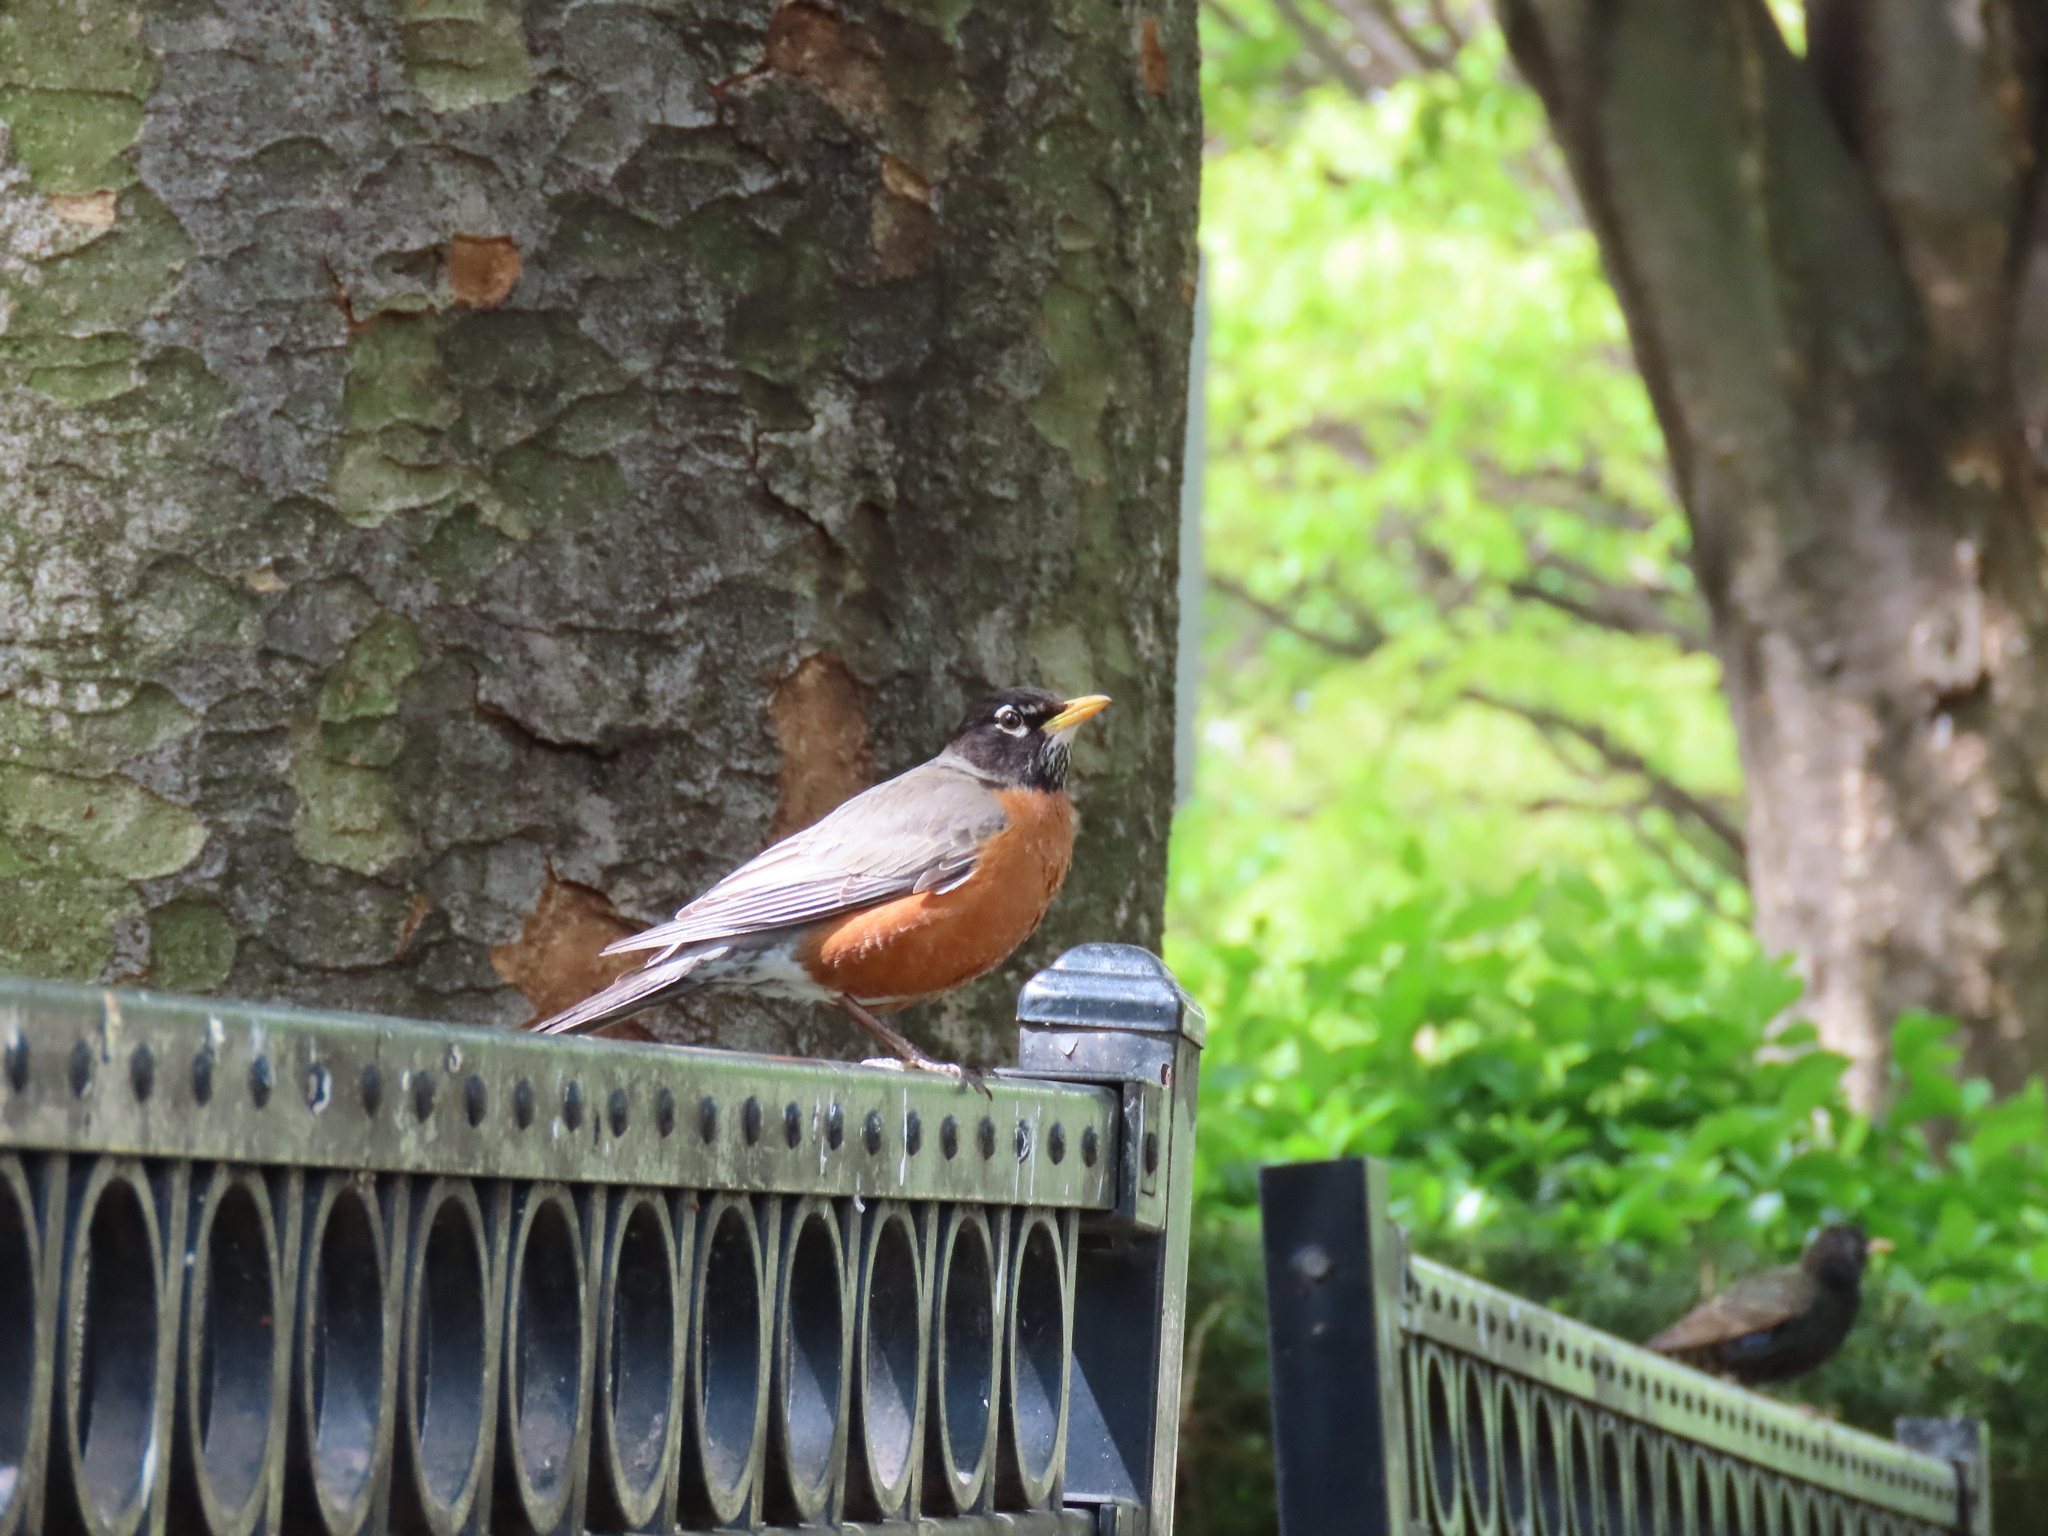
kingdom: Animalia
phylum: Chordata
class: Aves
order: Passeriformes
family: Turdidae
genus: Turdus
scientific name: Turdus migratorius
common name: American robin
